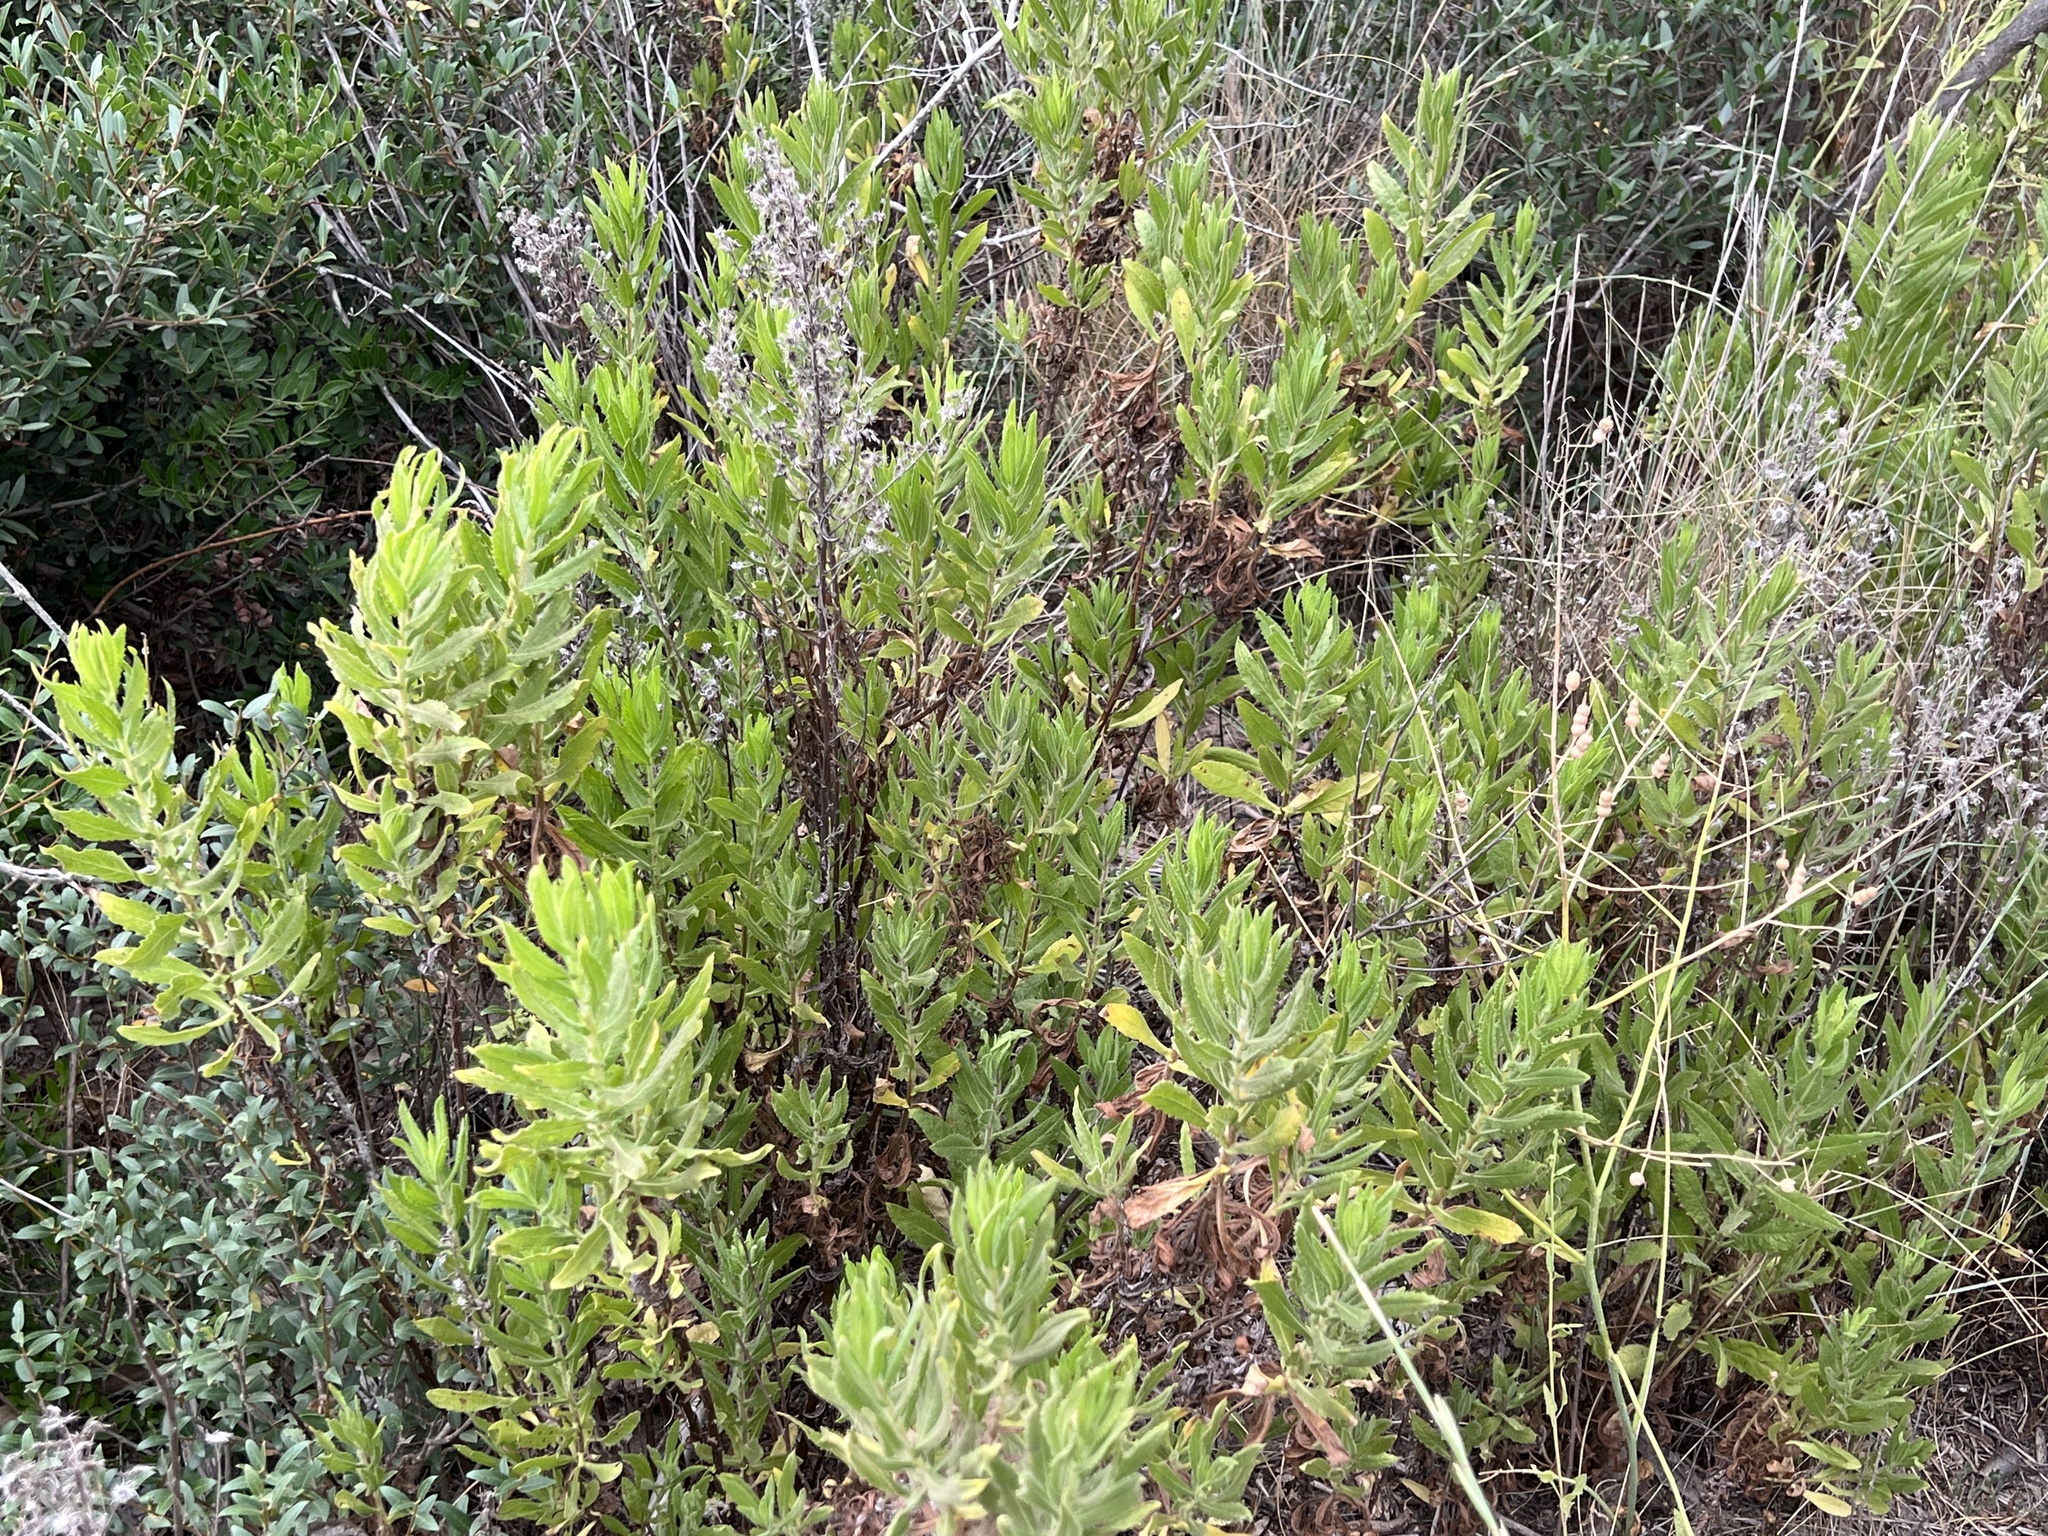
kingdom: Plantae
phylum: Tracheophyta
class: Magnoliopsida
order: Asterales
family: Asteraceae
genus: Dittrichia
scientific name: Dittrichia viscosa
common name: Woody fleabane
